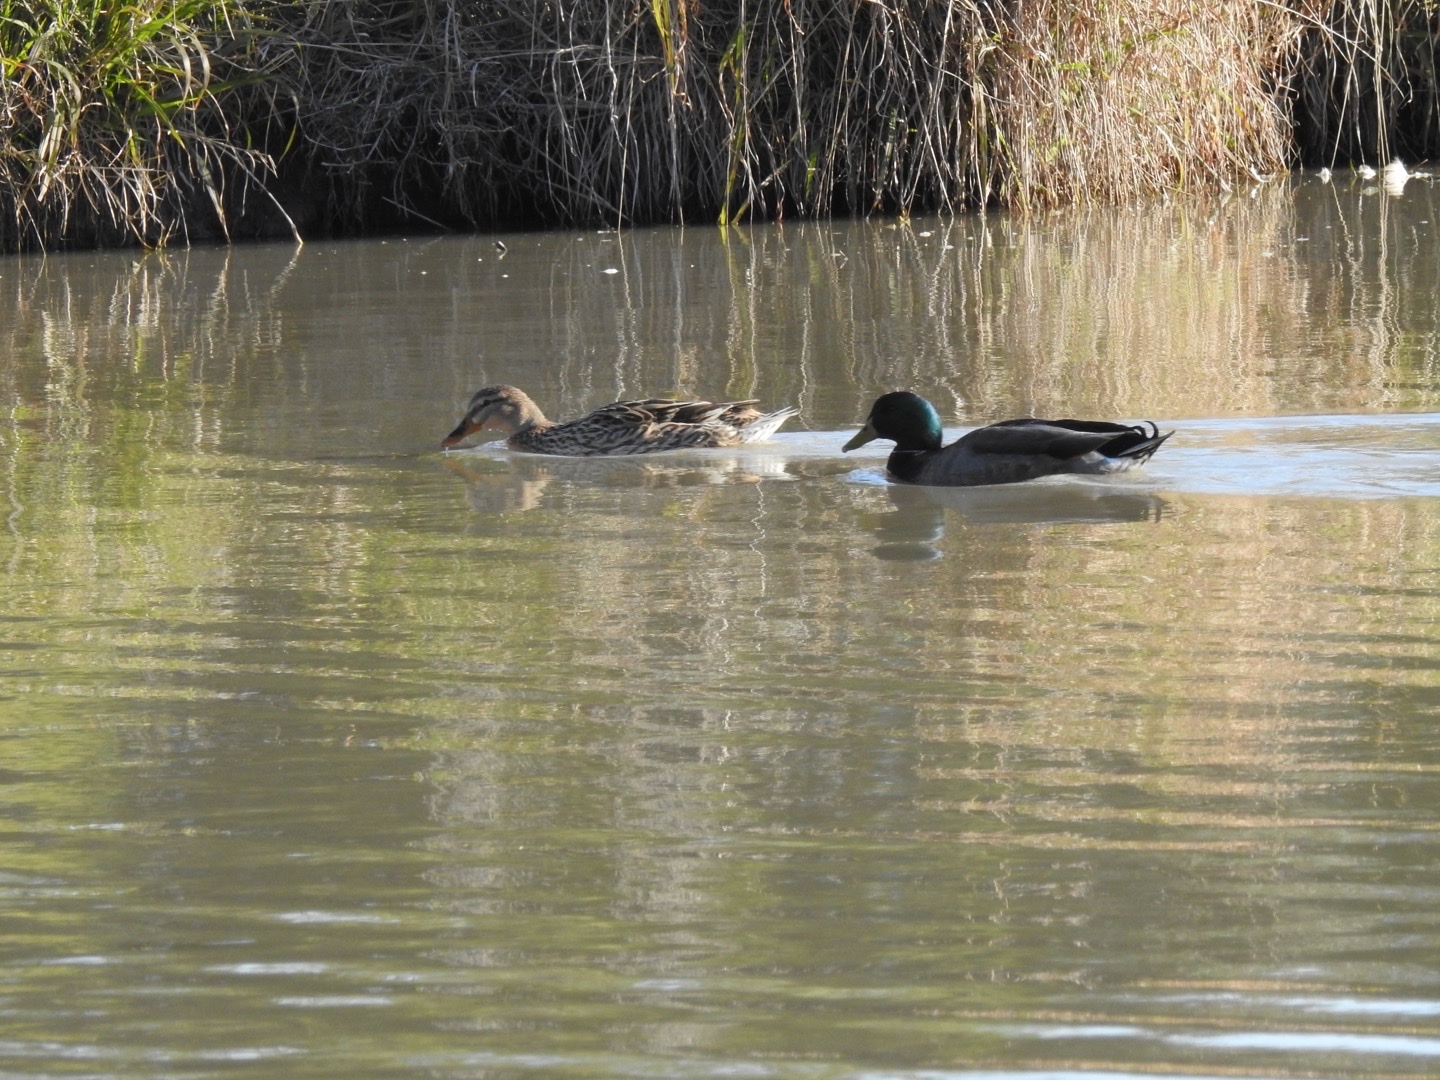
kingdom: Animalia
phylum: Chordata
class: Aves
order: Anseriformes
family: Anatidae
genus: Anas
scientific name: Anas platyrhynchos
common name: Mallard
